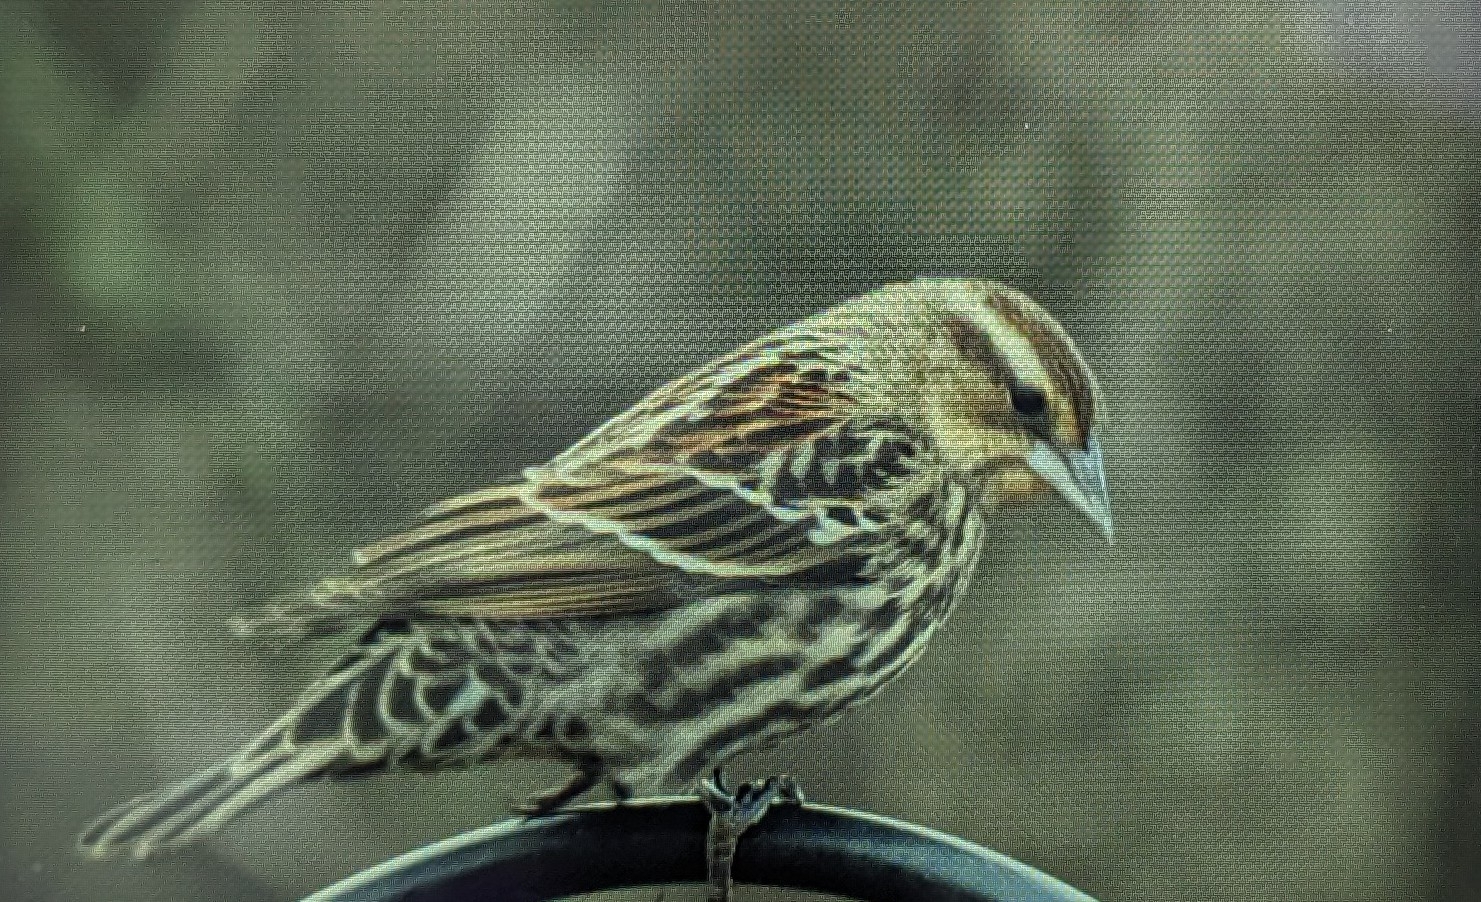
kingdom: Animalia
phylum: Chordata
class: Aves
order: Passeriformes
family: Icteridae
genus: Agelaius
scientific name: Agelaius phoeniceus
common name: Red-winged blackbird
